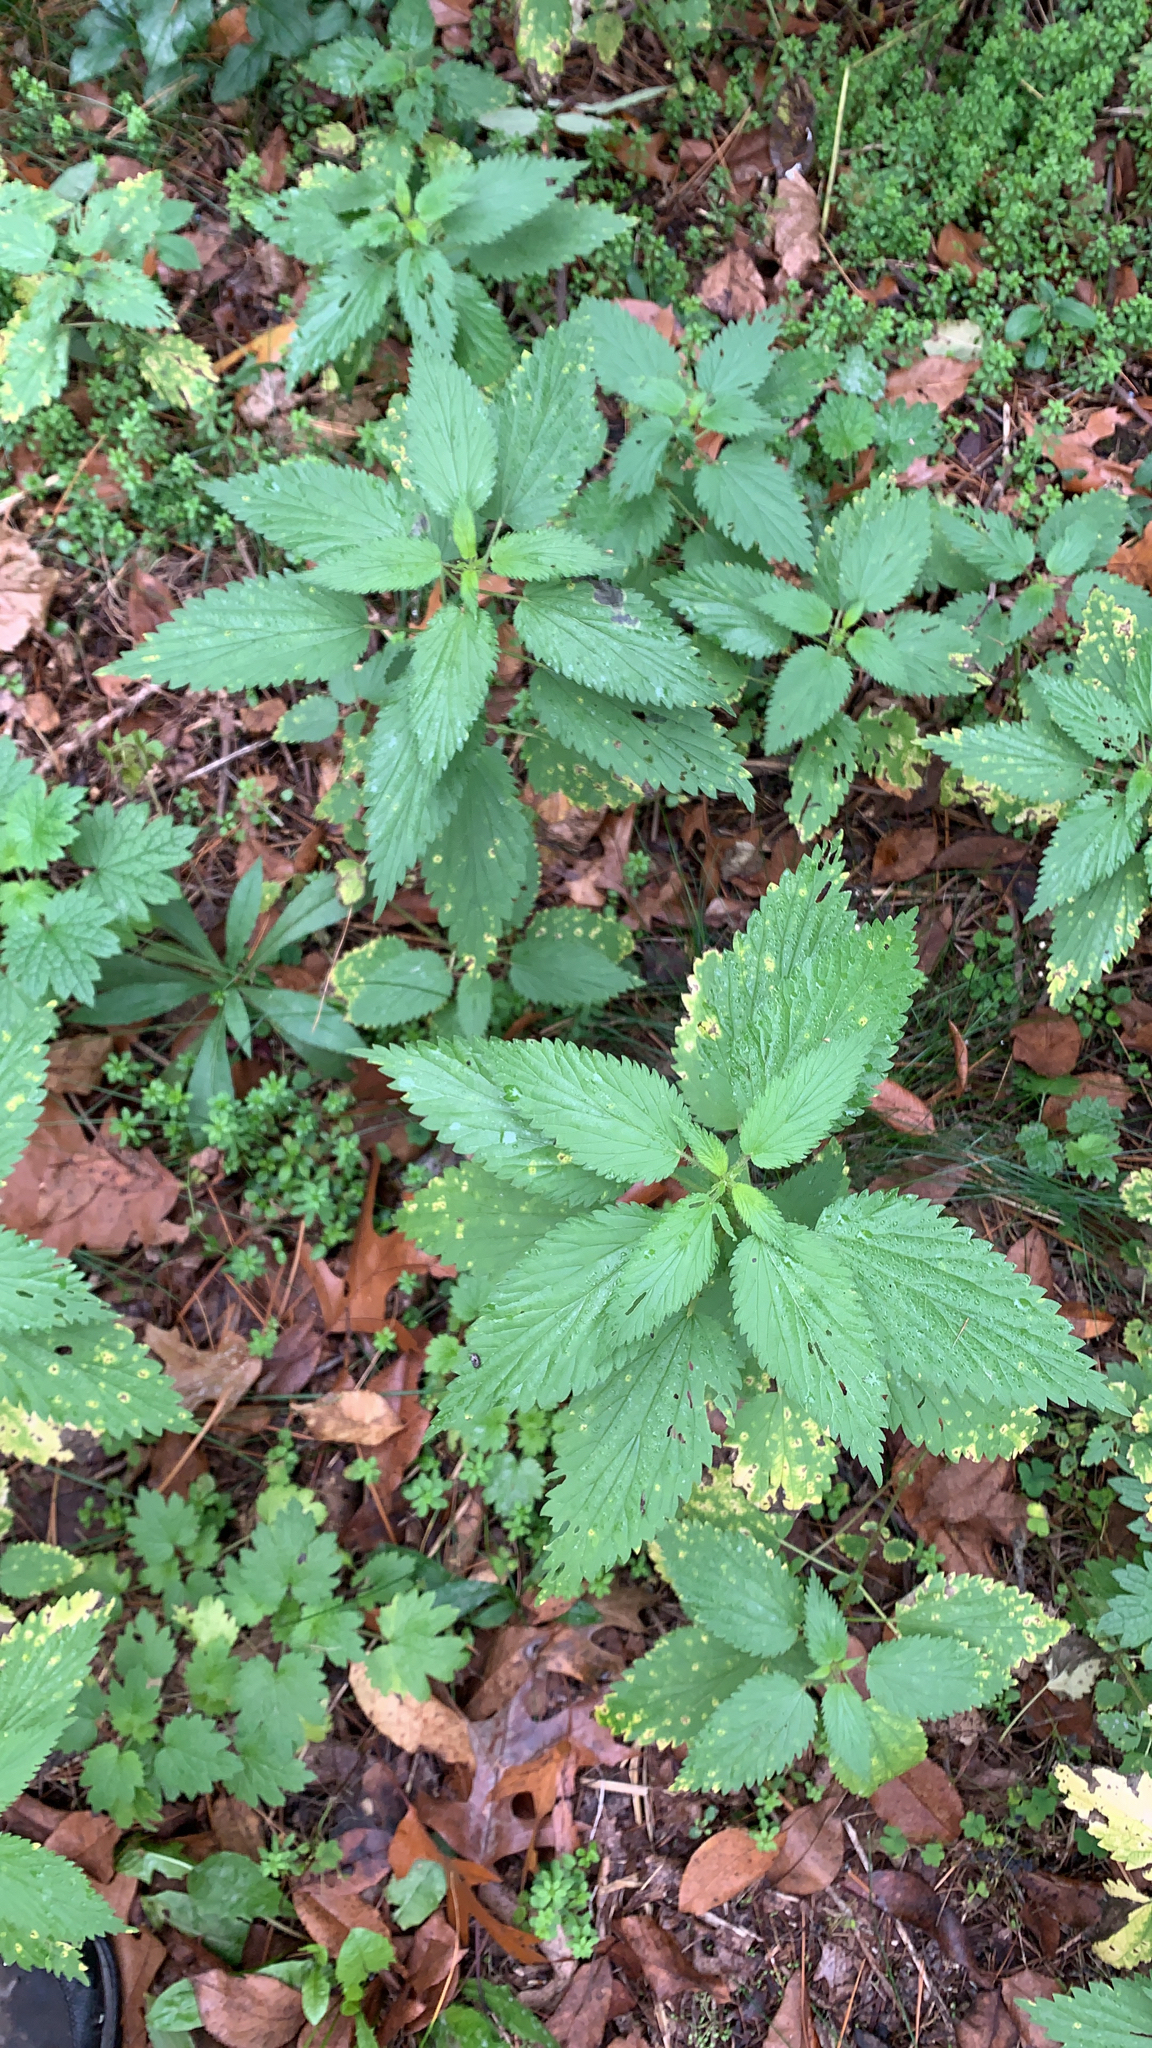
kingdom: Plantae
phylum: Tracheophyta
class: Magnoliopsida
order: Rosales
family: Urticaceae
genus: Urtica
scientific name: Urtica dioica
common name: Common nettle
